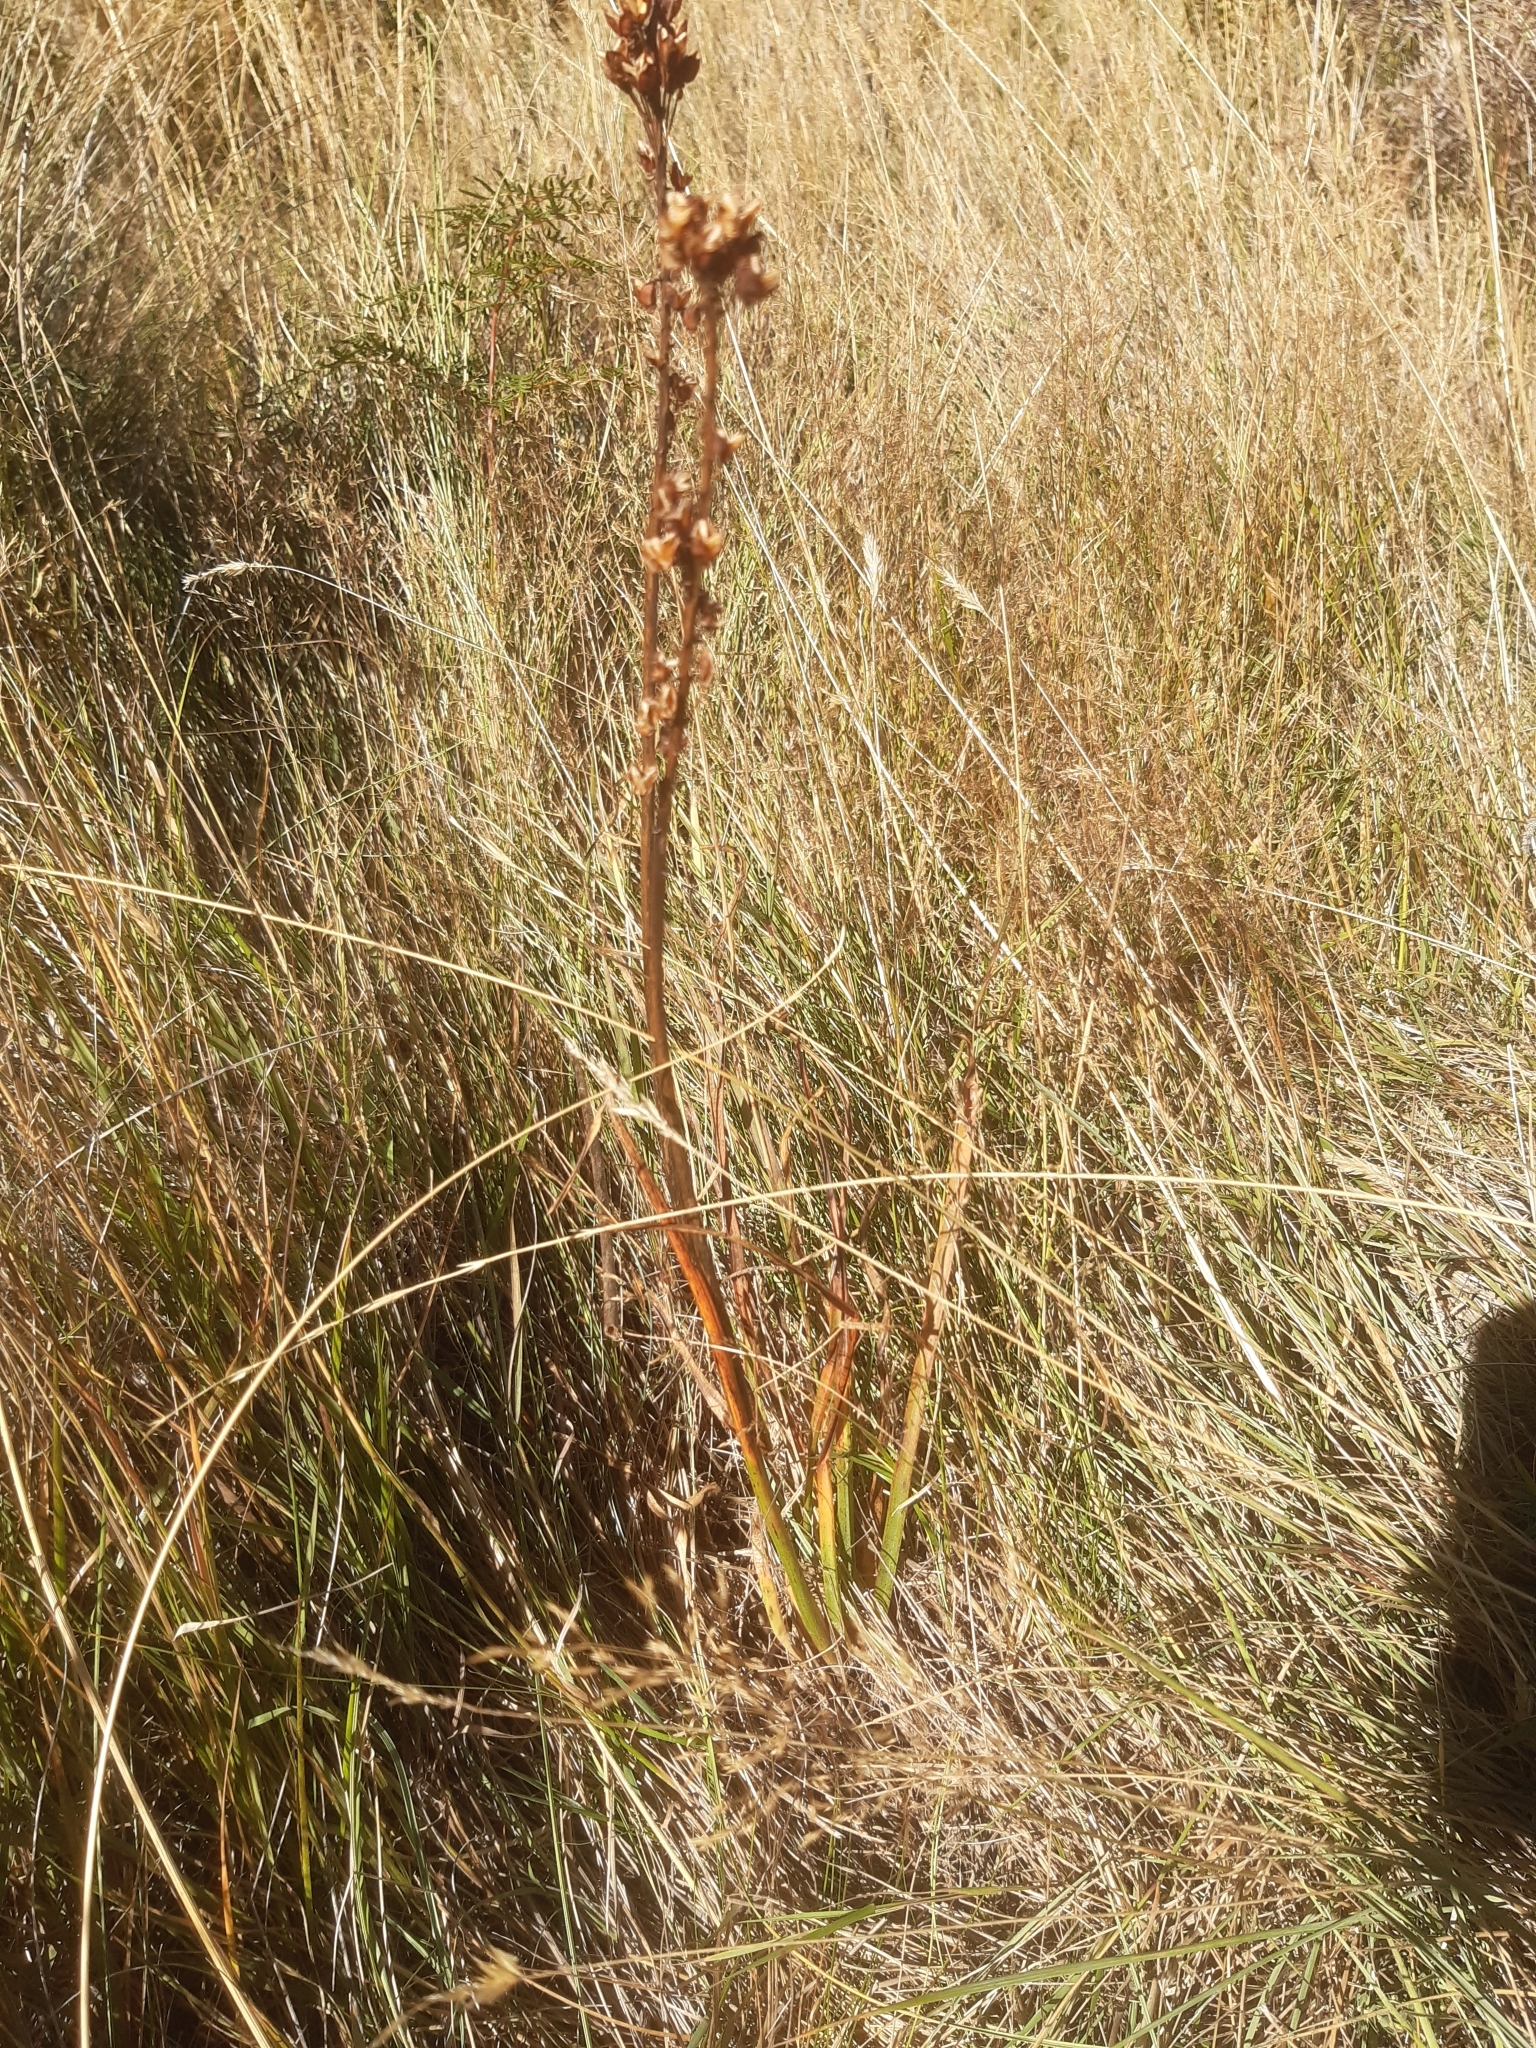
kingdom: Plantae
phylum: Tracheophyta
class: Liliopsida
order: Asparagales
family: Asphodelaceae
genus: Bulbinella
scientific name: Bulbinella angustifolia
